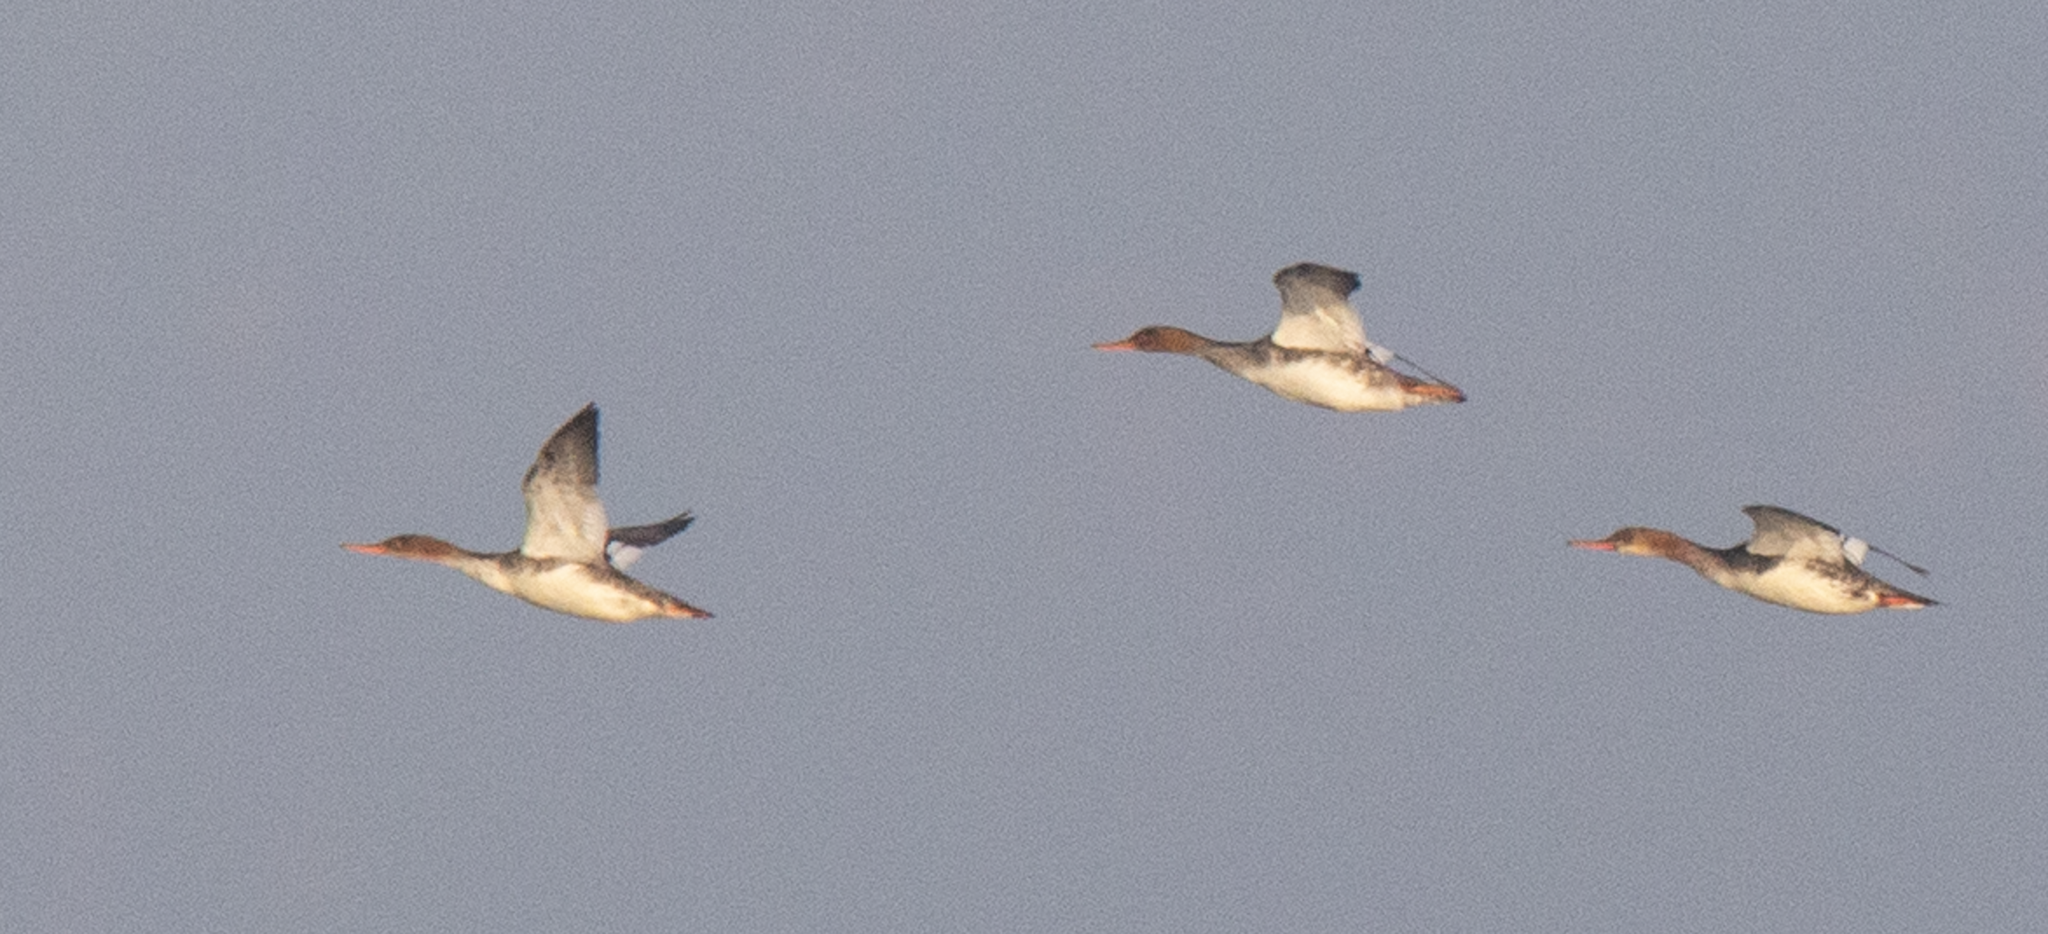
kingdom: Animalia
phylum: Chordata
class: Aves
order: Anseriformes
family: Anatidae
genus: Mergus
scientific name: Mergus serrator
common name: Red-breasted merganser
